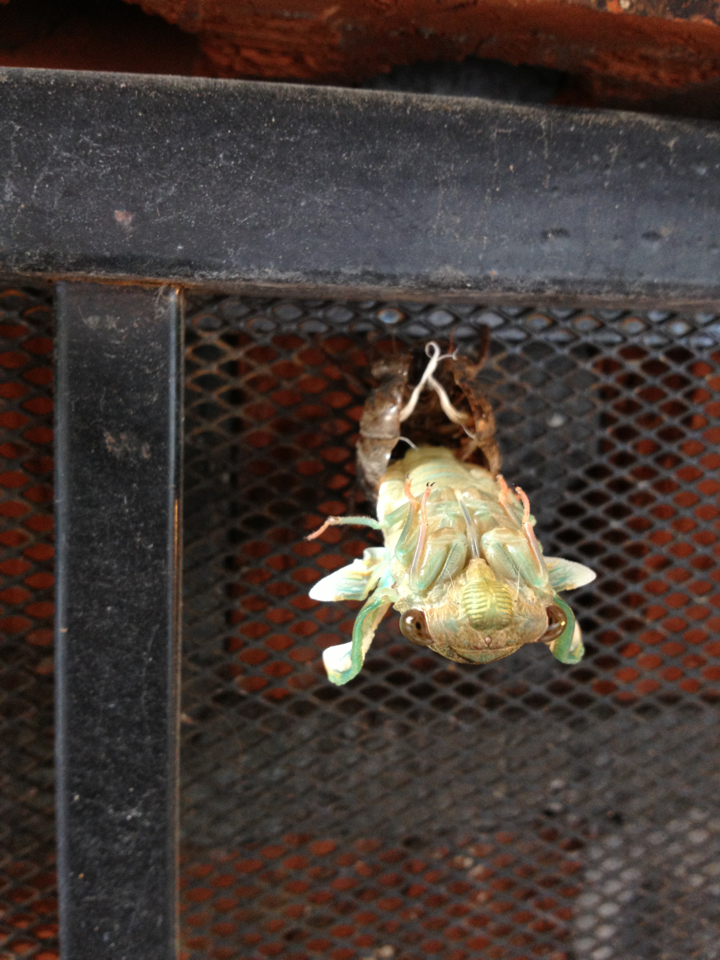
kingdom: Animalia
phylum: Arthropoda
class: Insecta
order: Hemiptera
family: Cicadidae
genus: Neotibicen
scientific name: Neotibicen pruinosus
